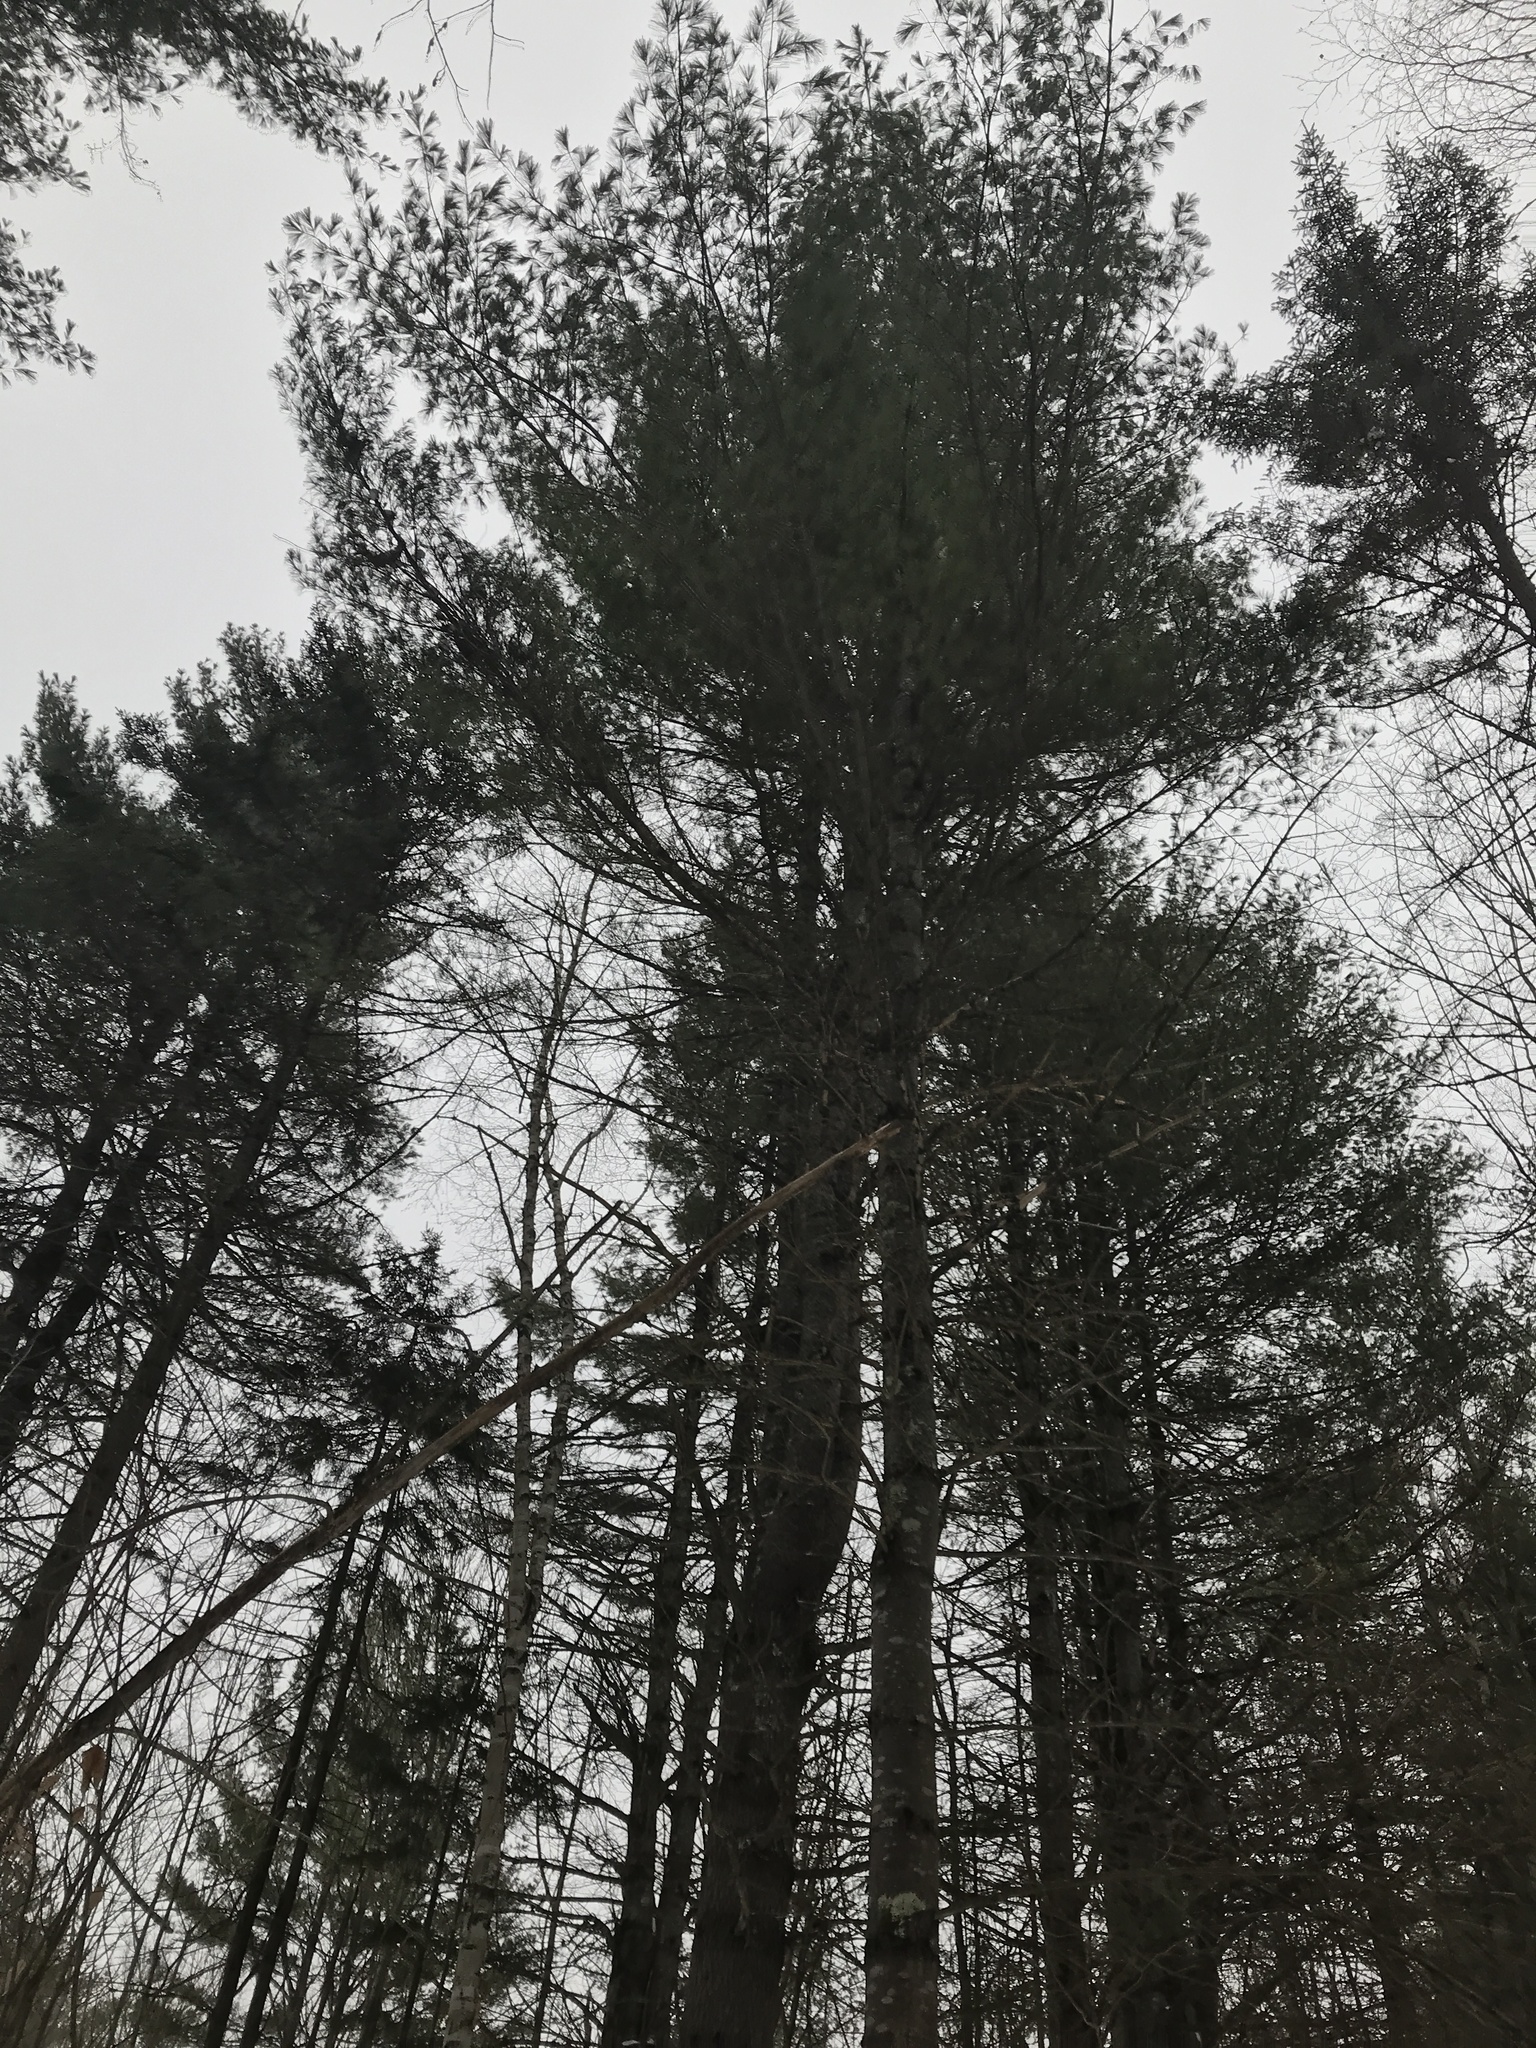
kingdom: Plantae
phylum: Tracheophyta
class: Pinopsida
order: Pinales
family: Pinaceae
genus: Pinus
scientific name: Pinus strobus
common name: Weymouth pine
